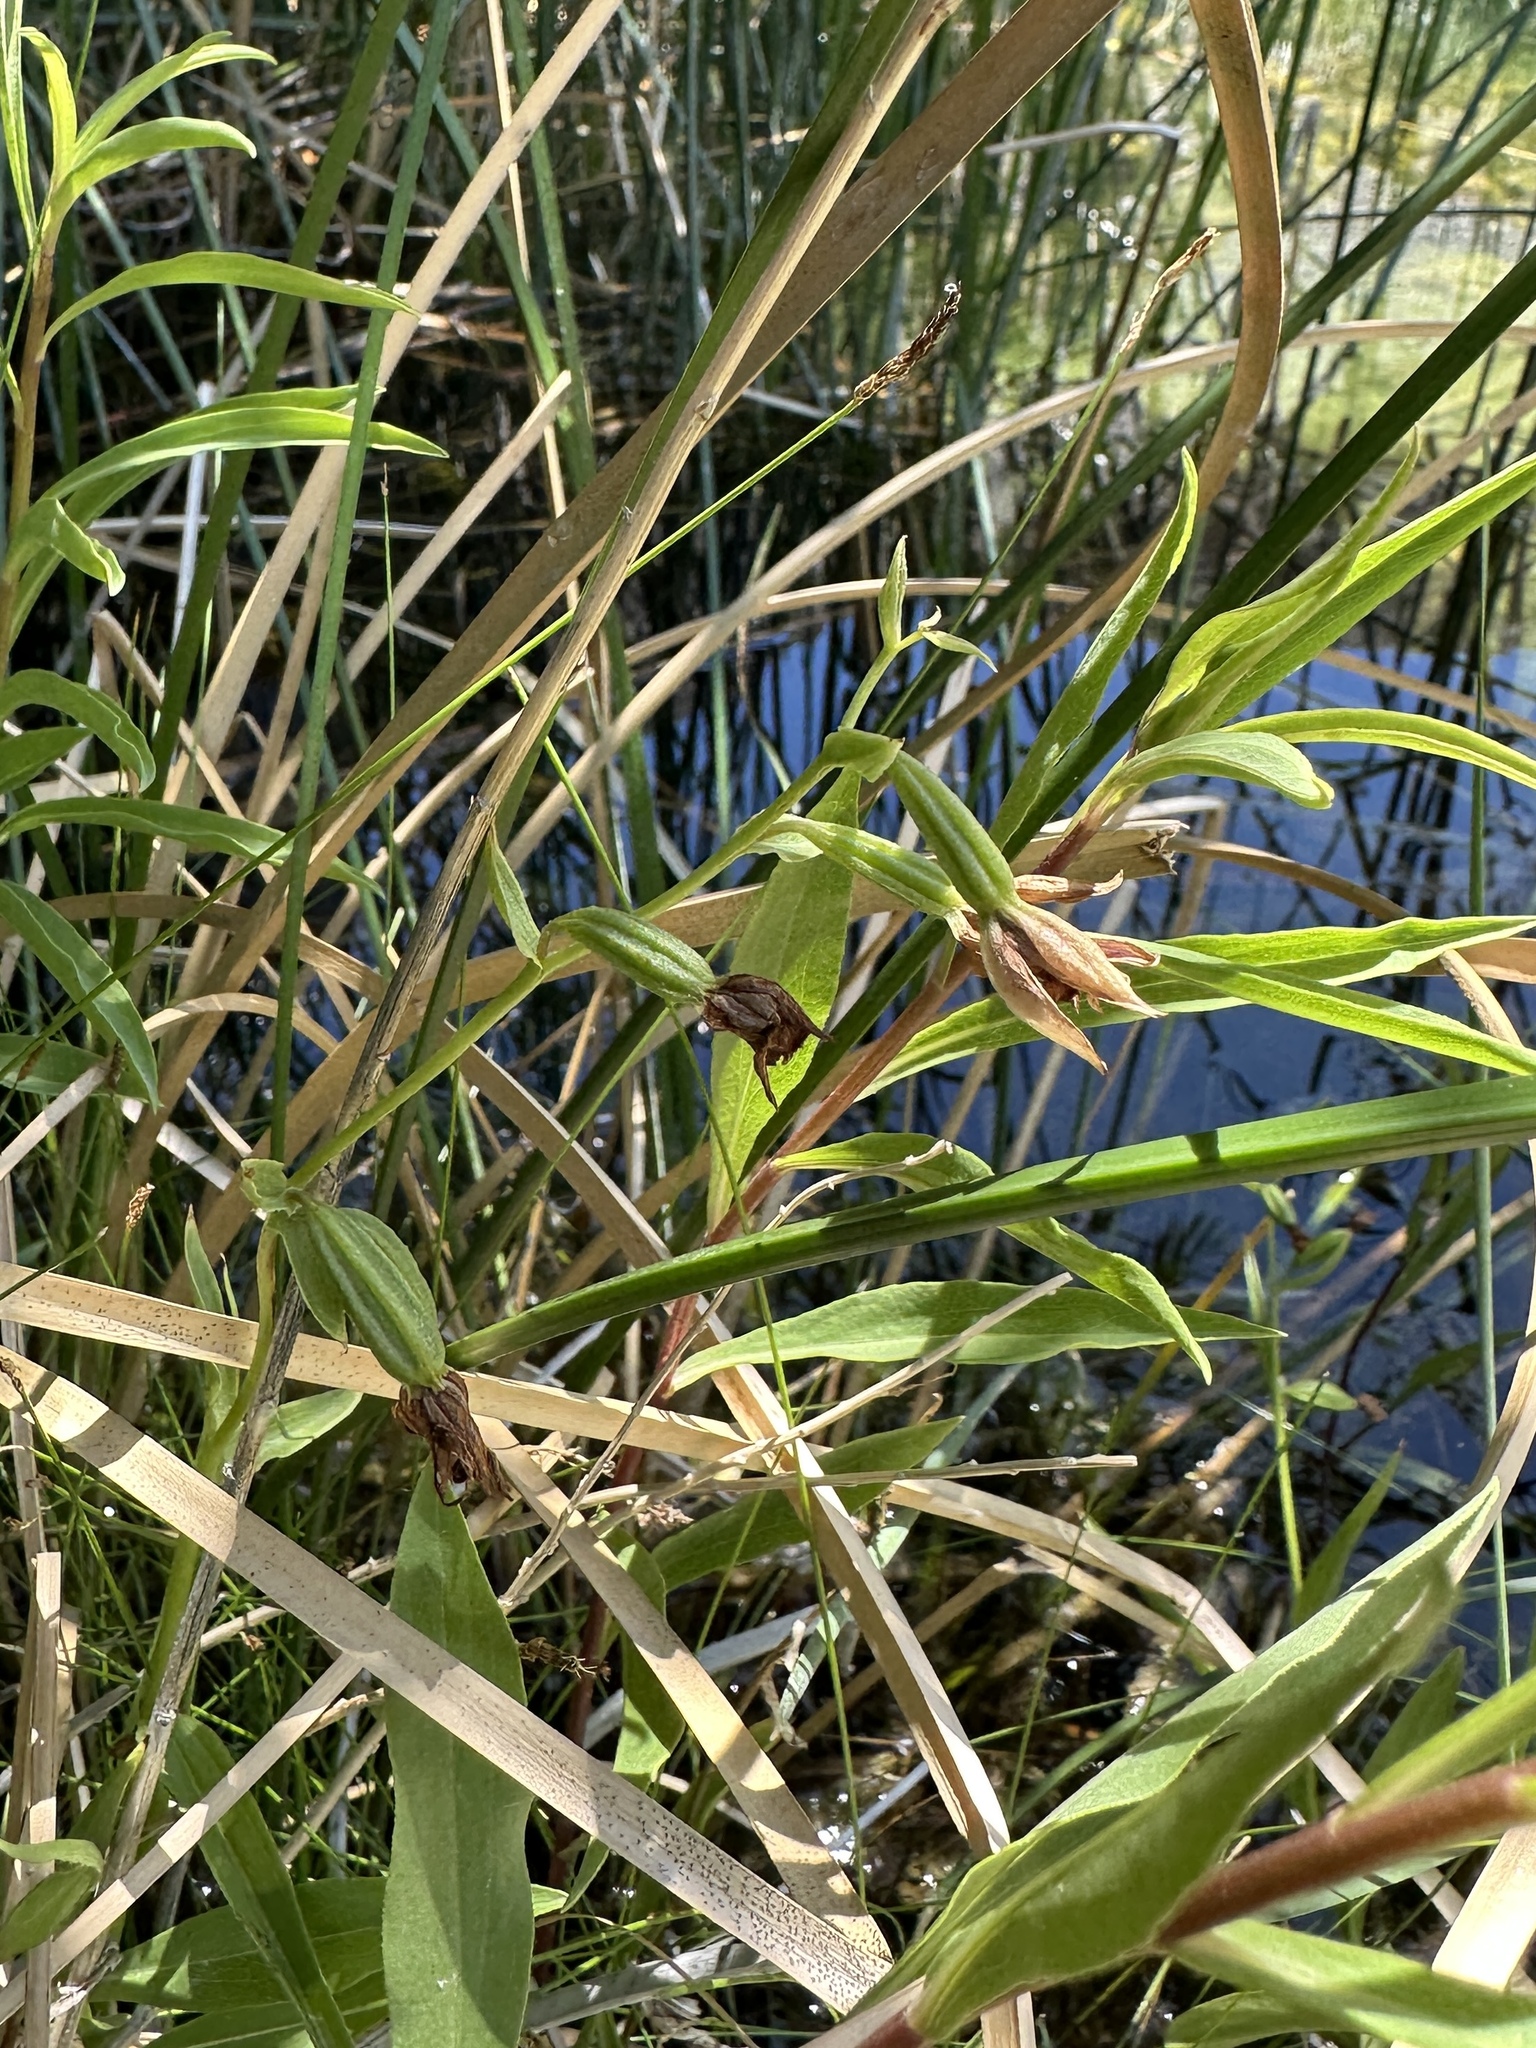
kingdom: Plantae
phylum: Tracheophyta
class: Liliopsida
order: Asparagales
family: Orchidaceae
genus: Epipactis
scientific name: Epipactis gigantea
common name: Chatterbox
